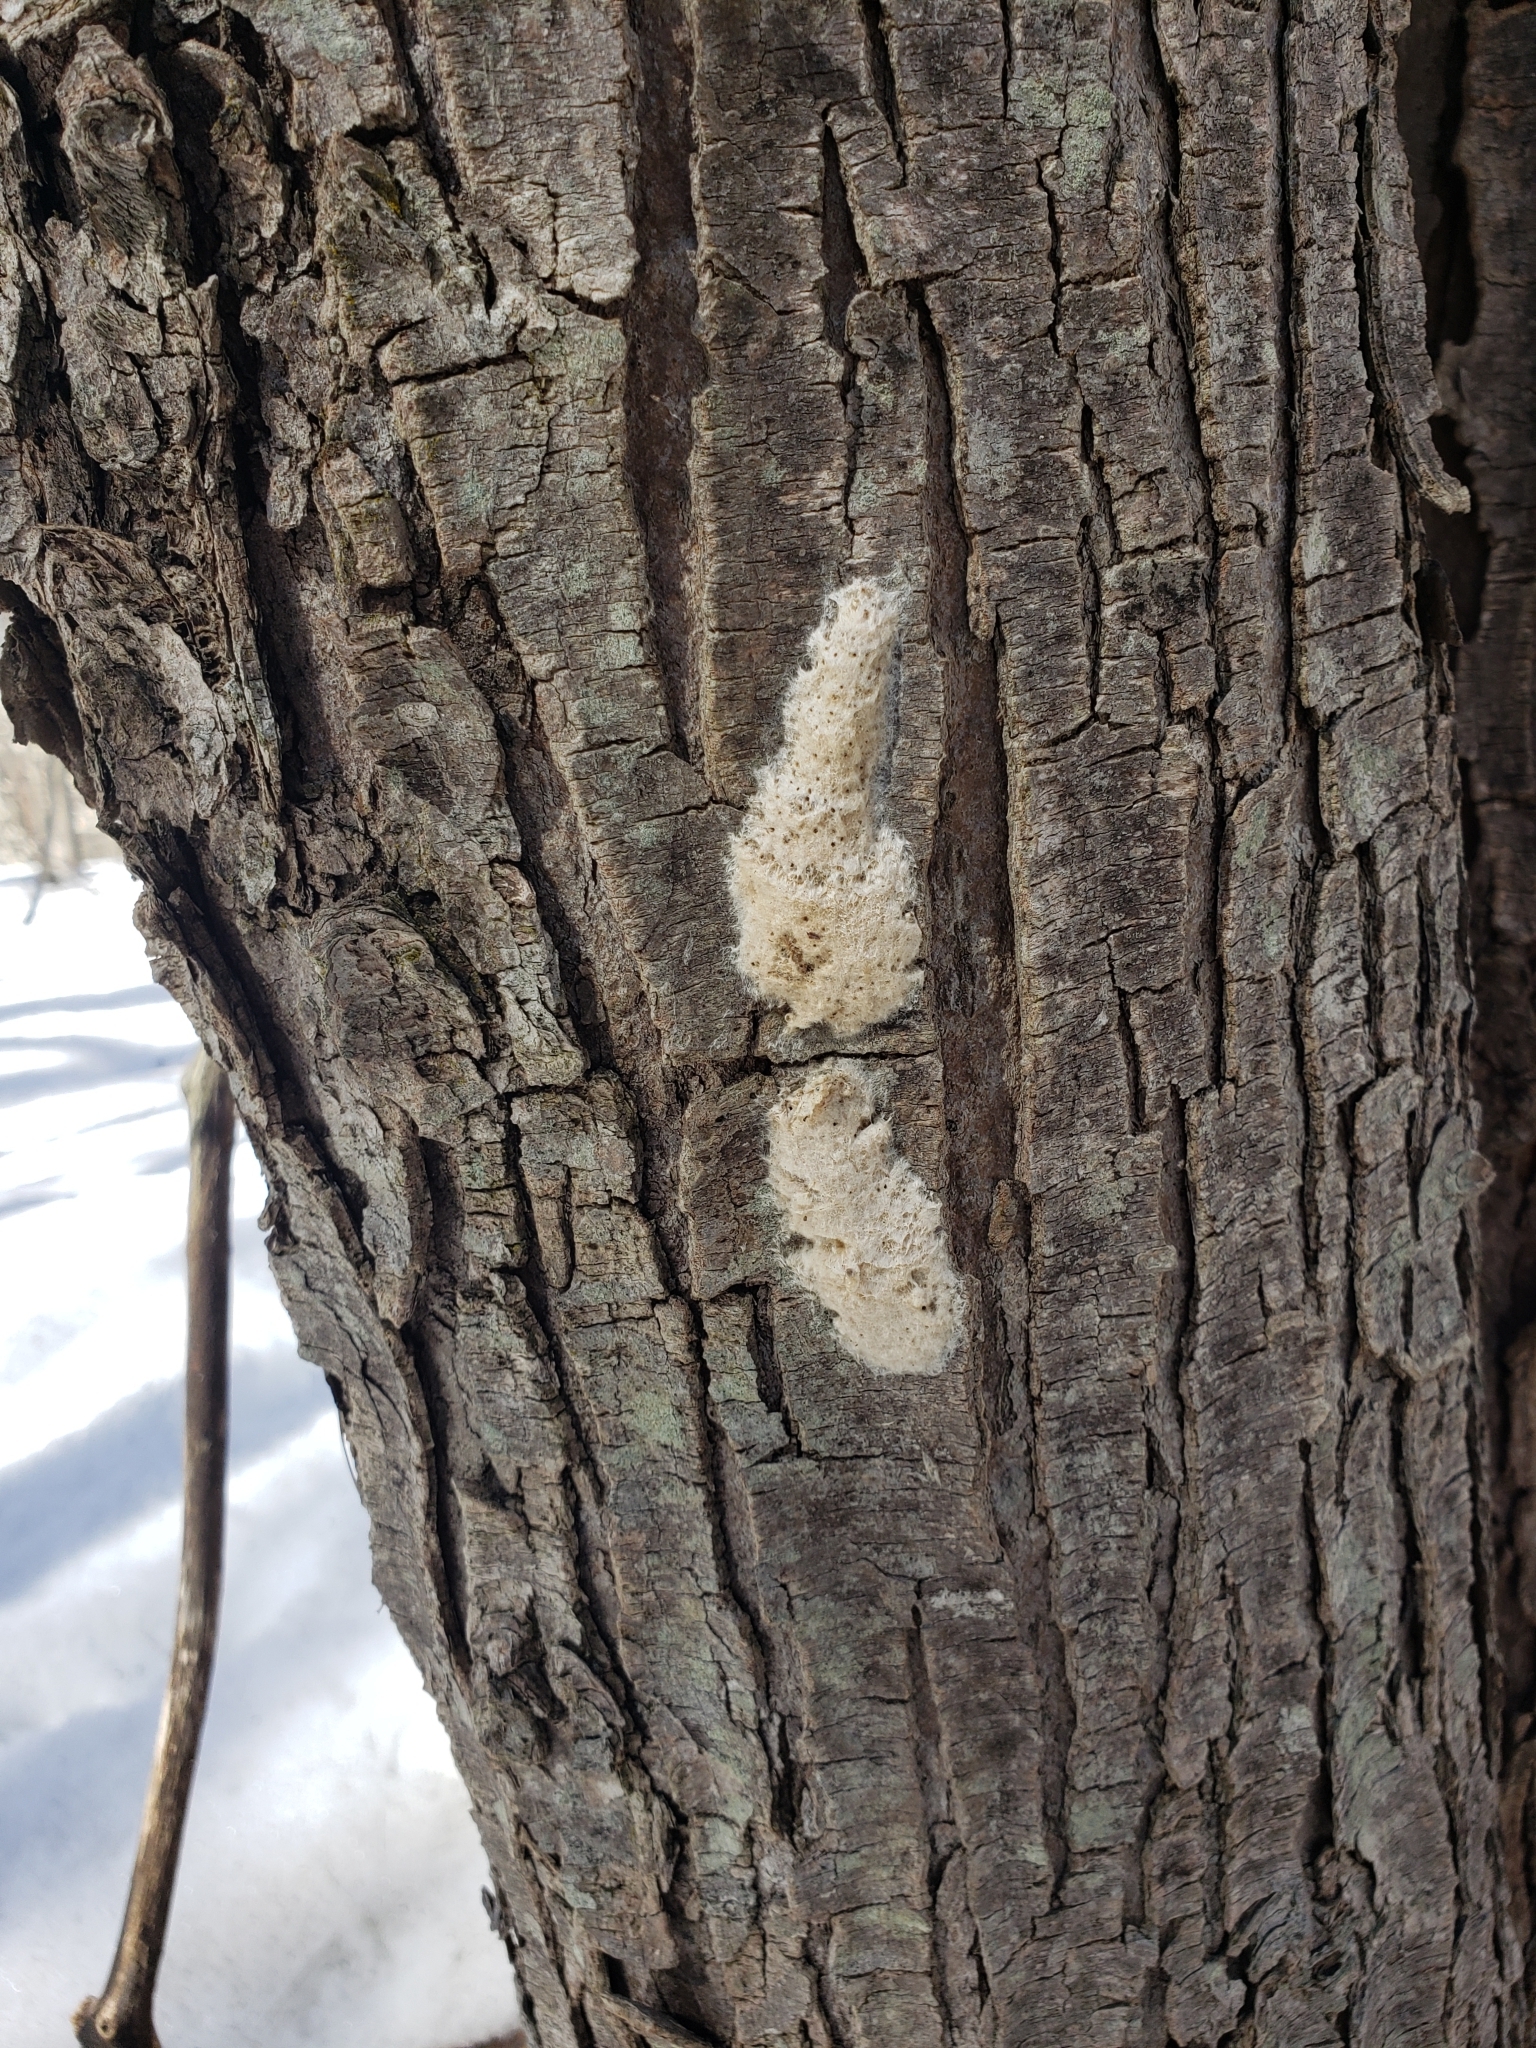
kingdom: Animalia
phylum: Arthropoda
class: Insecta
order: Lepidoptera
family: Erebidae
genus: Lymantria
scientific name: Lymantria dispar
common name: Gypsy moth
